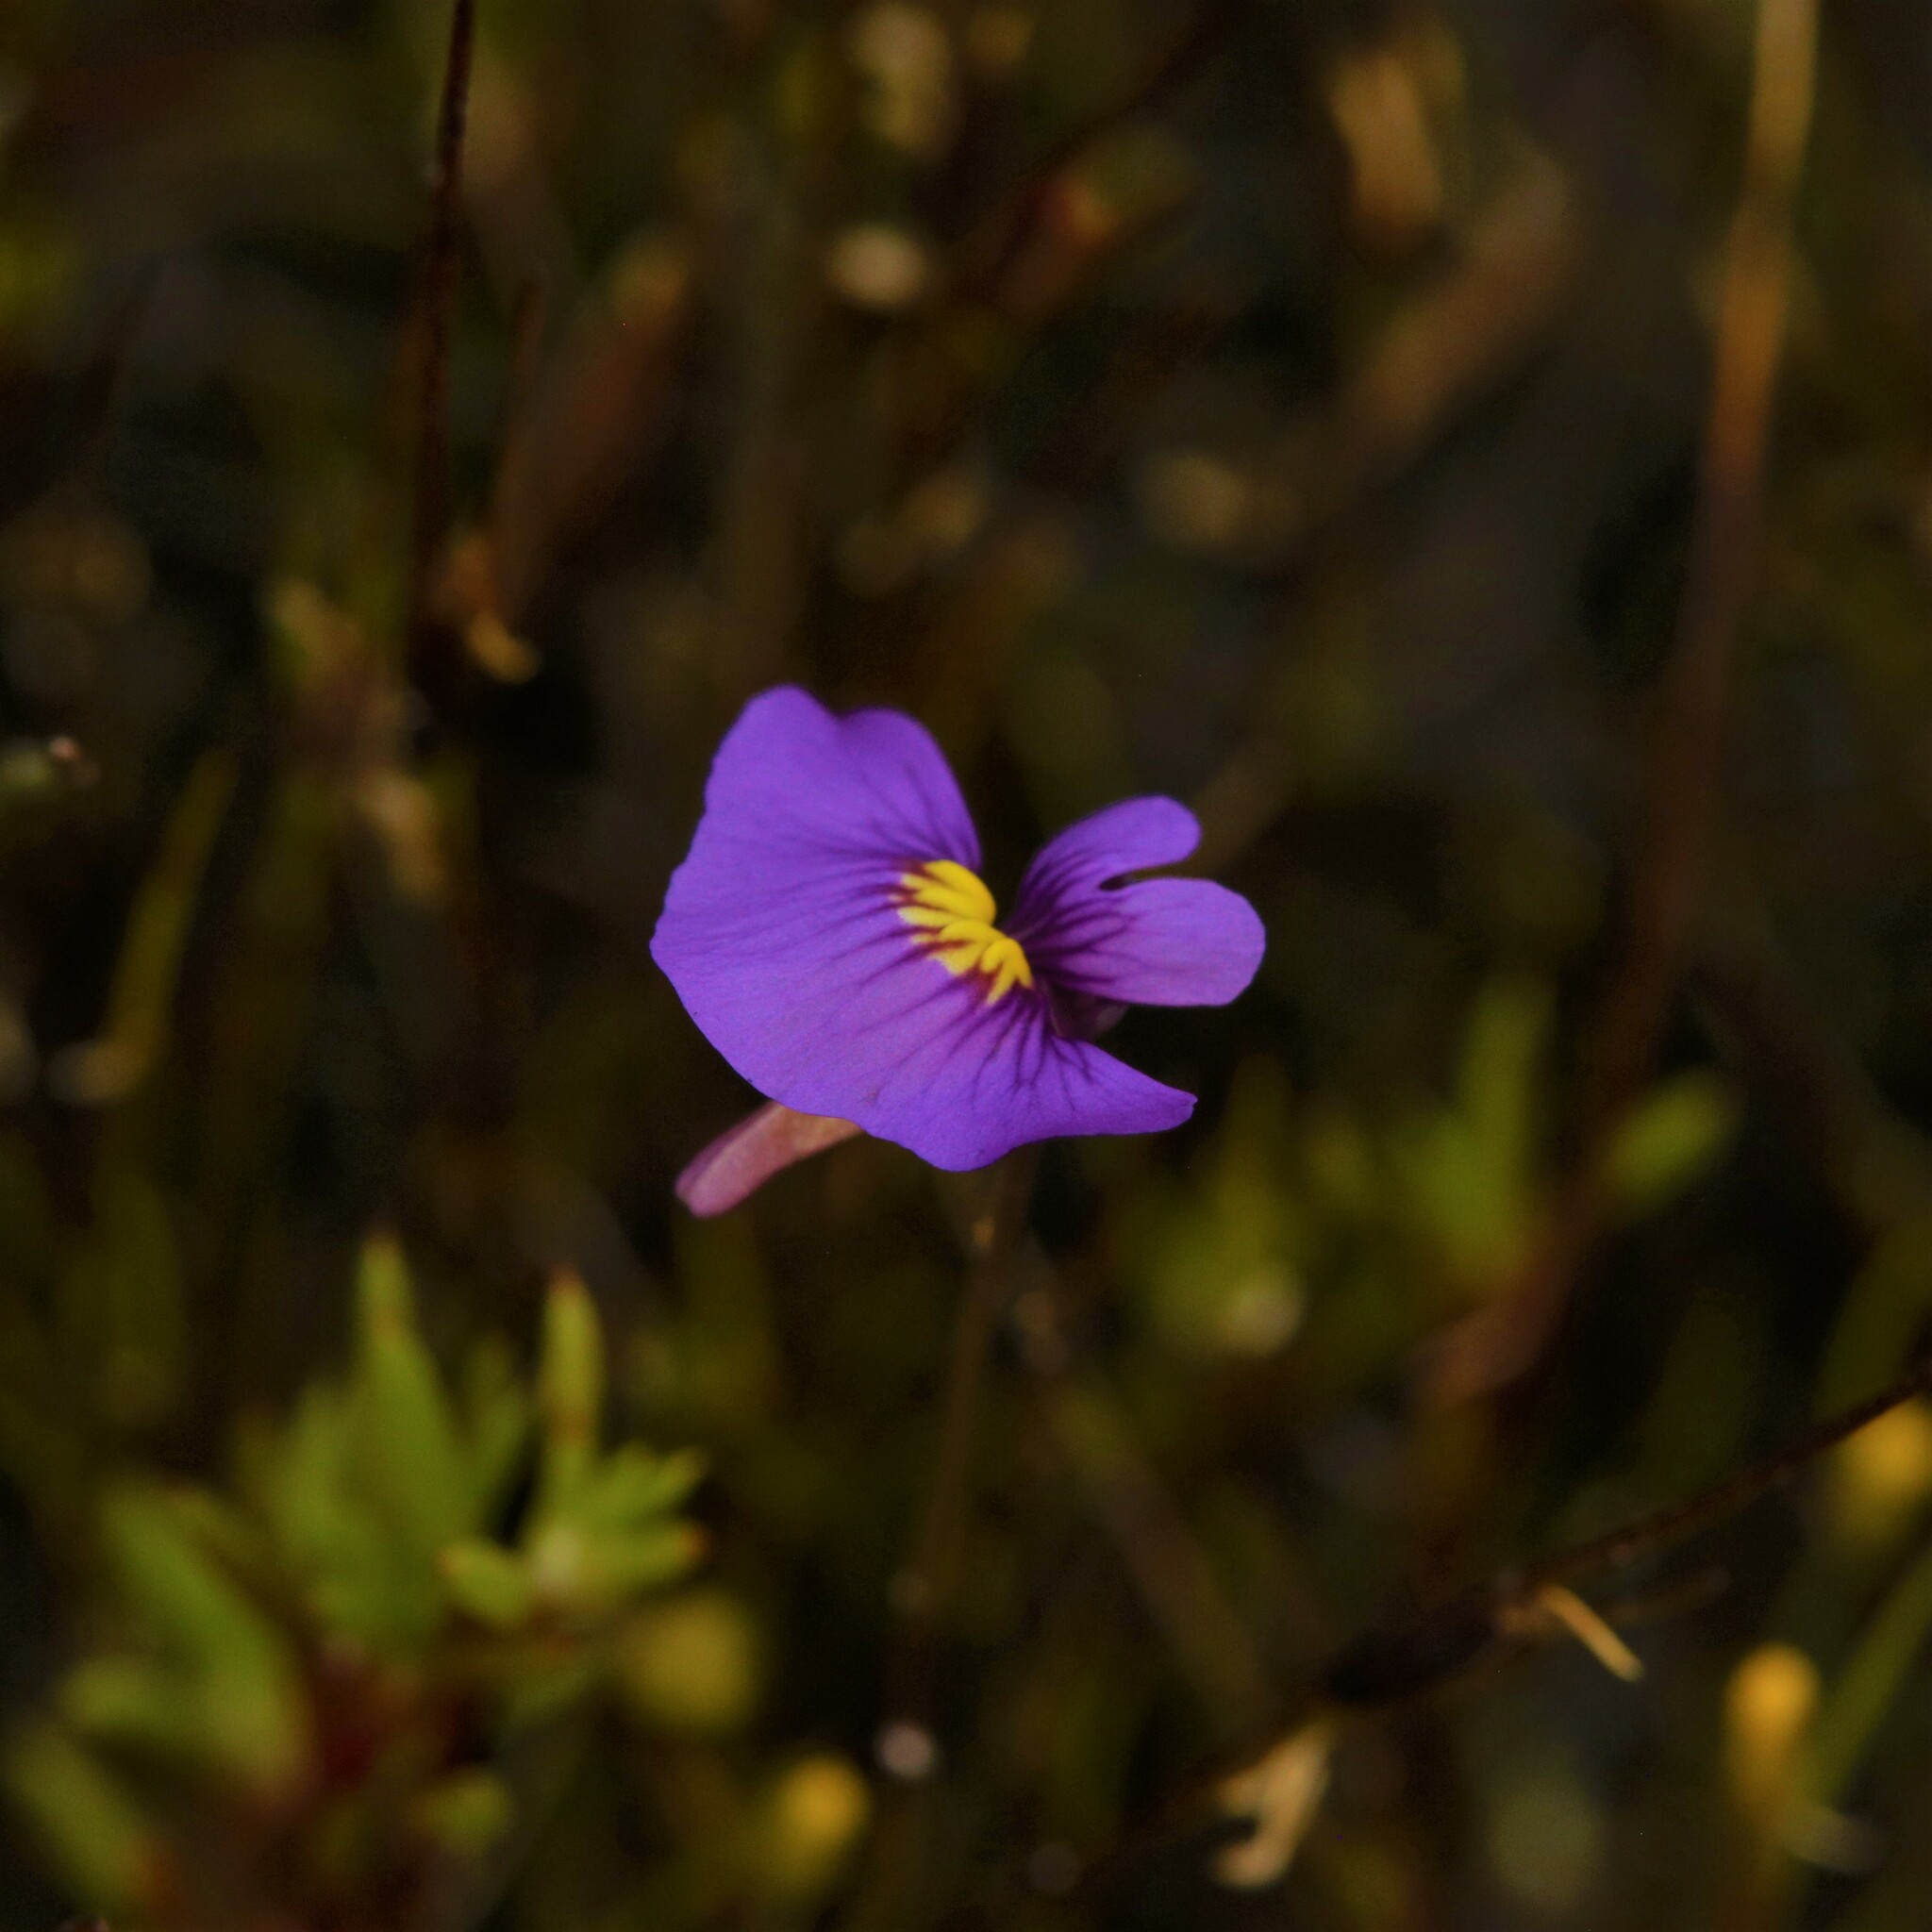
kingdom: Plantae
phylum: Tracheophyta
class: Magnoliopsida
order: Lamiales
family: Lentibulariaceae
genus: Utricularia
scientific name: Utricularia inaequalis
